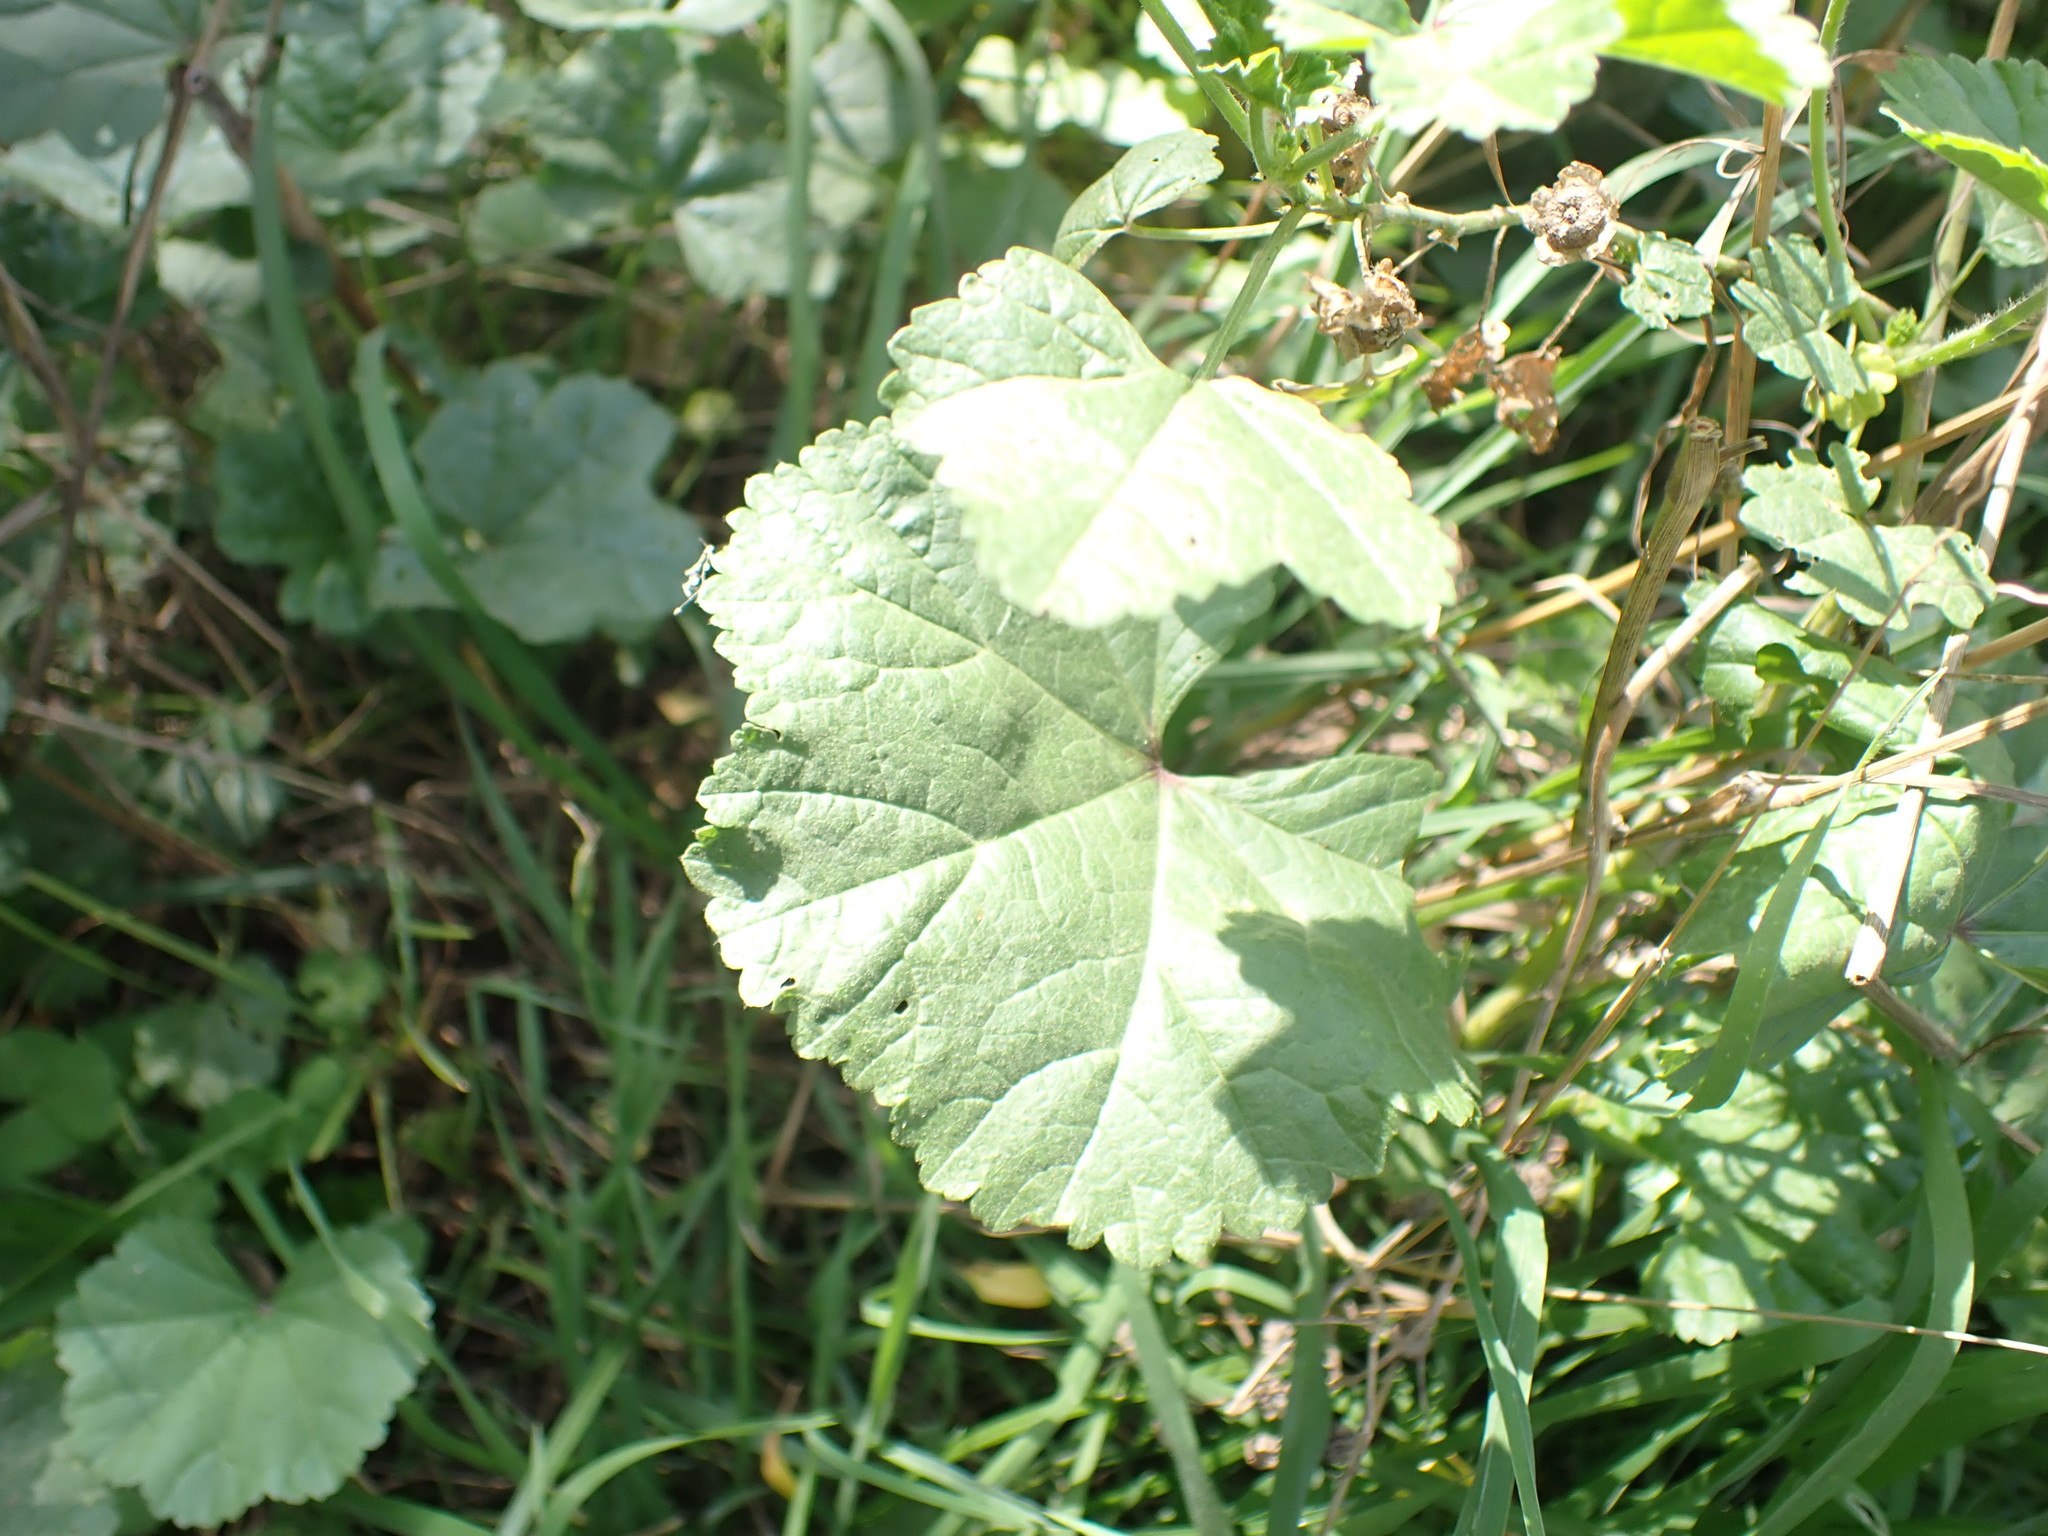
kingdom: Plantae
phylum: Tracheophyta
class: Magnoliopsida
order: Malvales
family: Malvaceae
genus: Malva
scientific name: Malva sylvestris
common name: Common mallow
